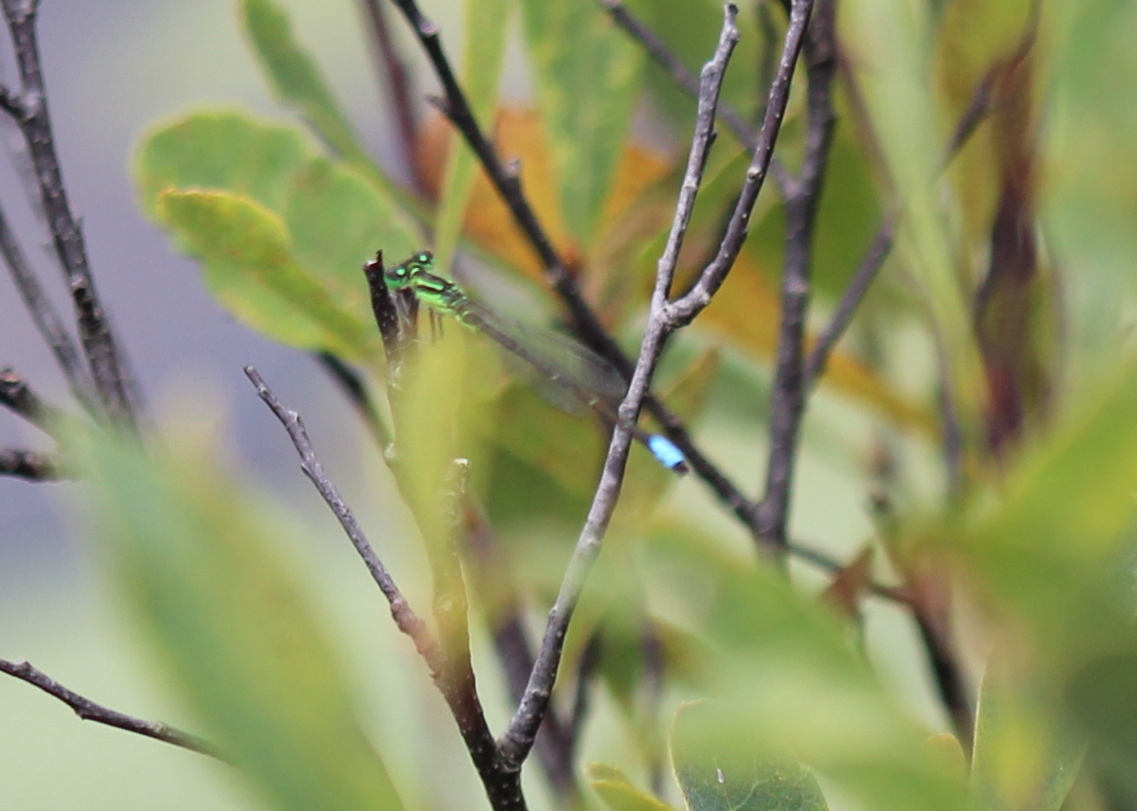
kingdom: Animalia
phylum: Arthropoda
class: Insecta
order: Odonata
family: Coenagrionidae
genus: Ischnura
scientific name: Ischnura verticalis
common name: Eastern forktail
